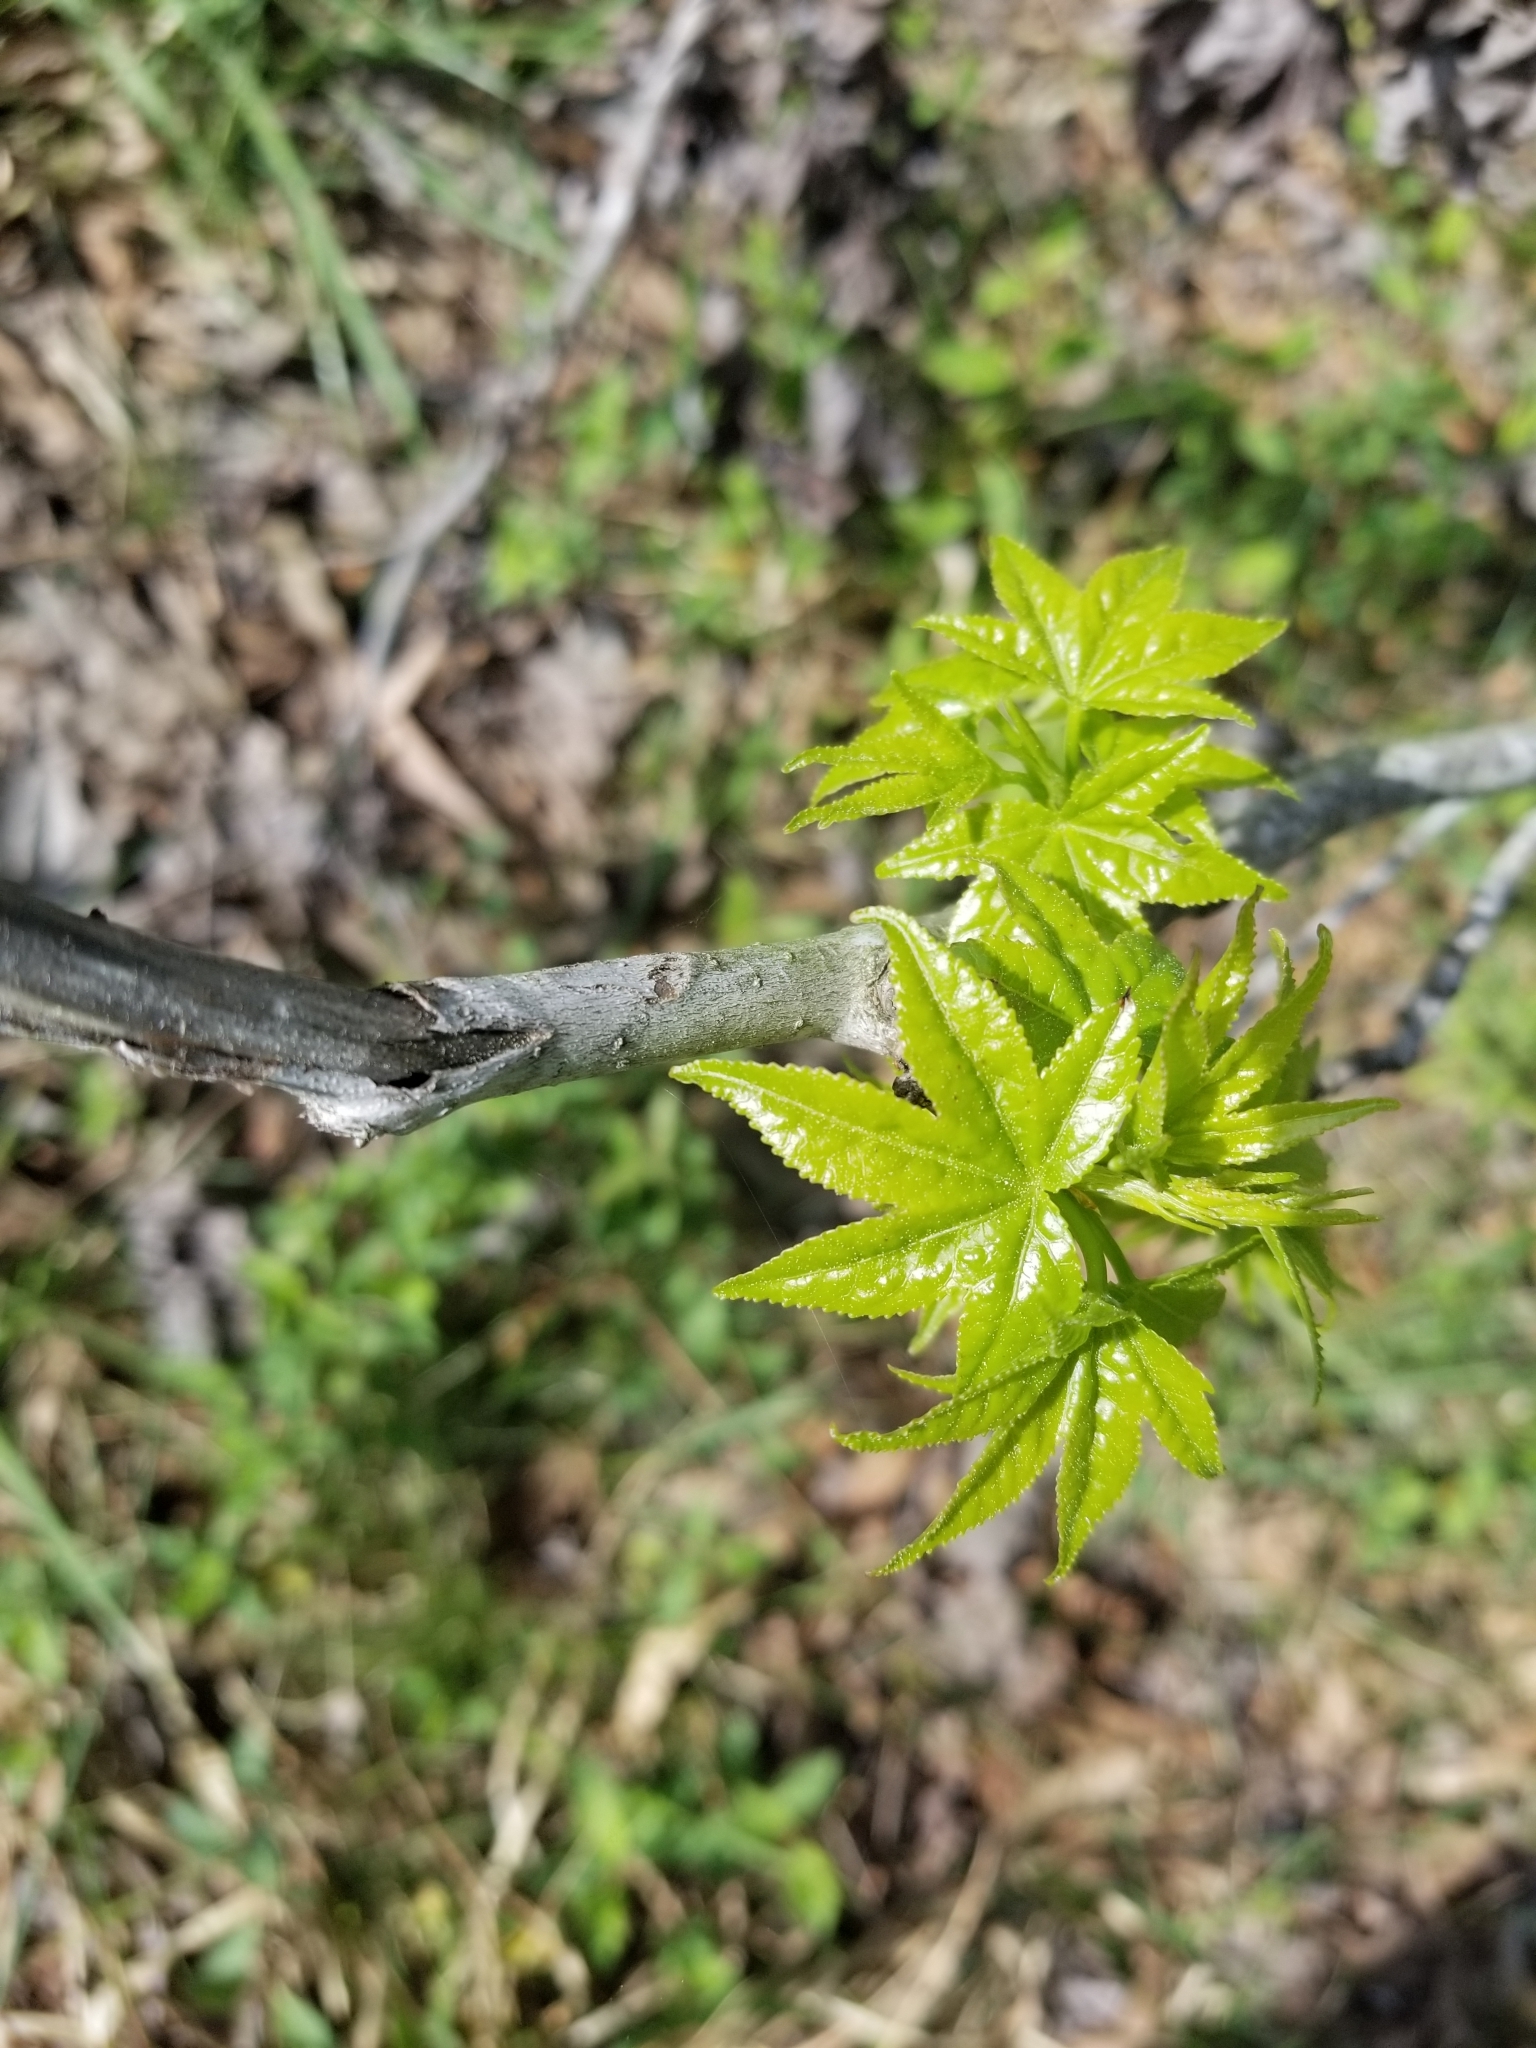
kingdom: Plantae
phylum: Tracheophyta
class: Magnoliopsida
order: Saxifragales
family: Altingiaceae
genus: Liquidambar
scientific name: Liquidambar styraciflua
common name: Sweet gum
